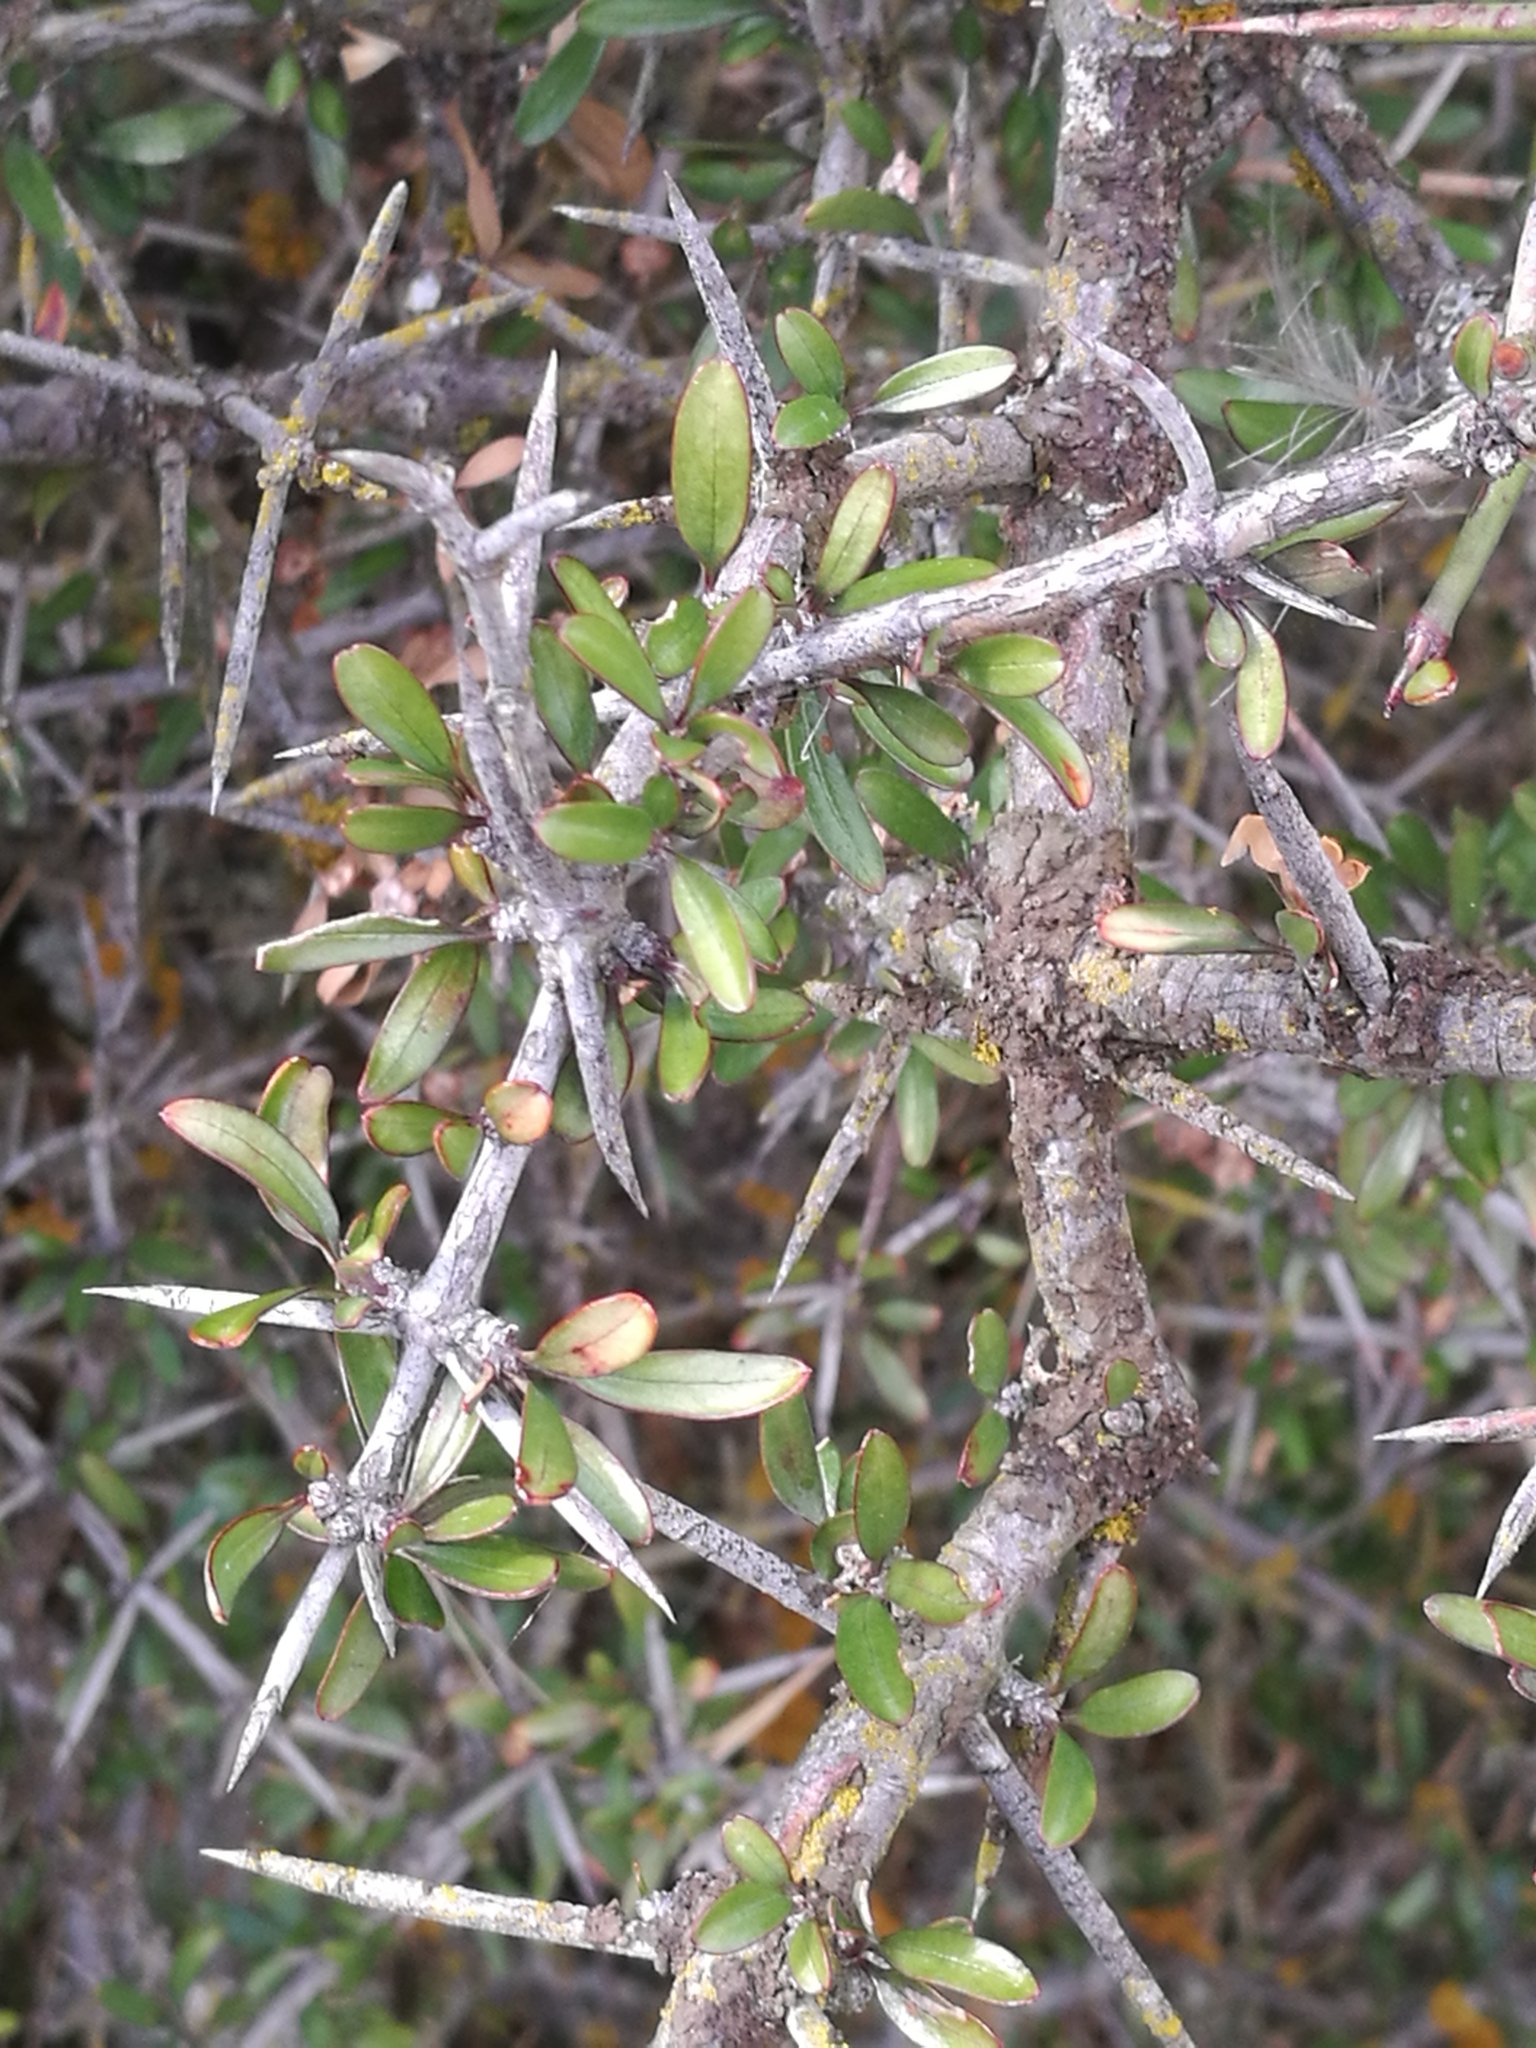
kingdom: Plantae
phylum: Tracheophyta
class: Magnoliopsida
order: Rosales
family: Rhamnaceae
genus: Discaria
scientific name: Discaria toumatou
